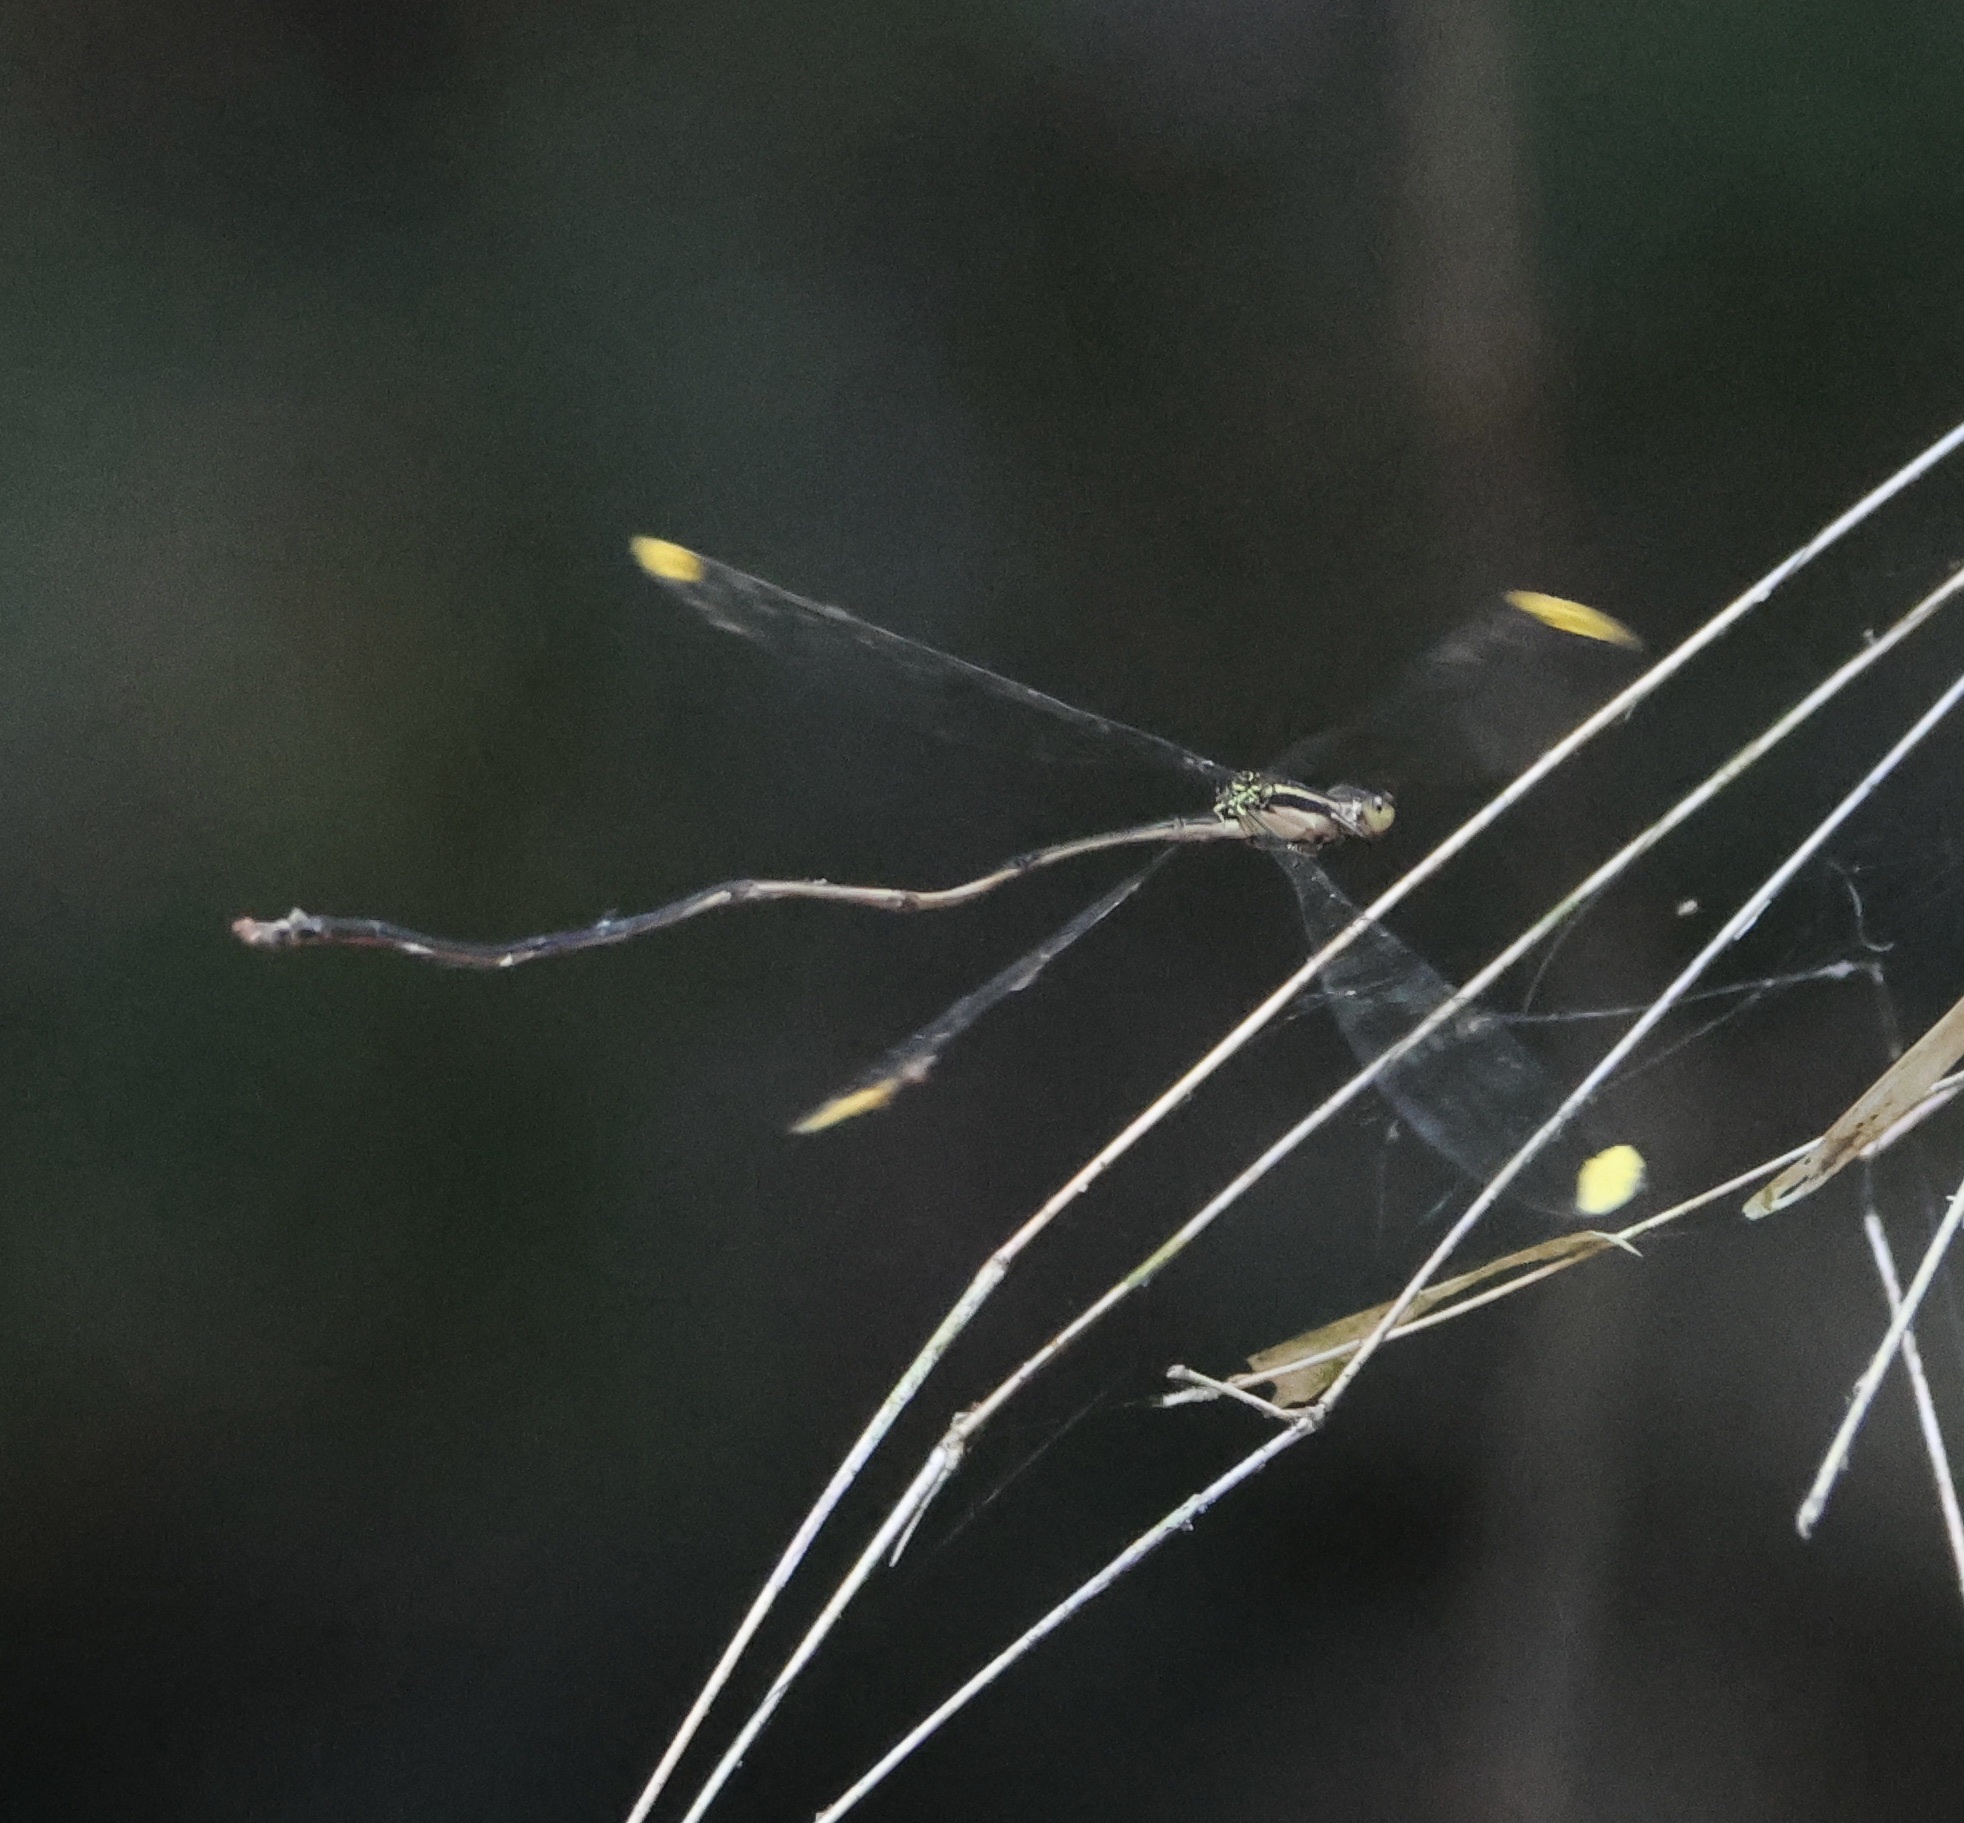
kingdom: Animalia
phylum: Arthropoda
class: Insecta
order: Odonata
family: Coenagrionidae
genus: Mecistogaster
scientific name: Mecistogaster ornata
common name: Ornate helicopter
